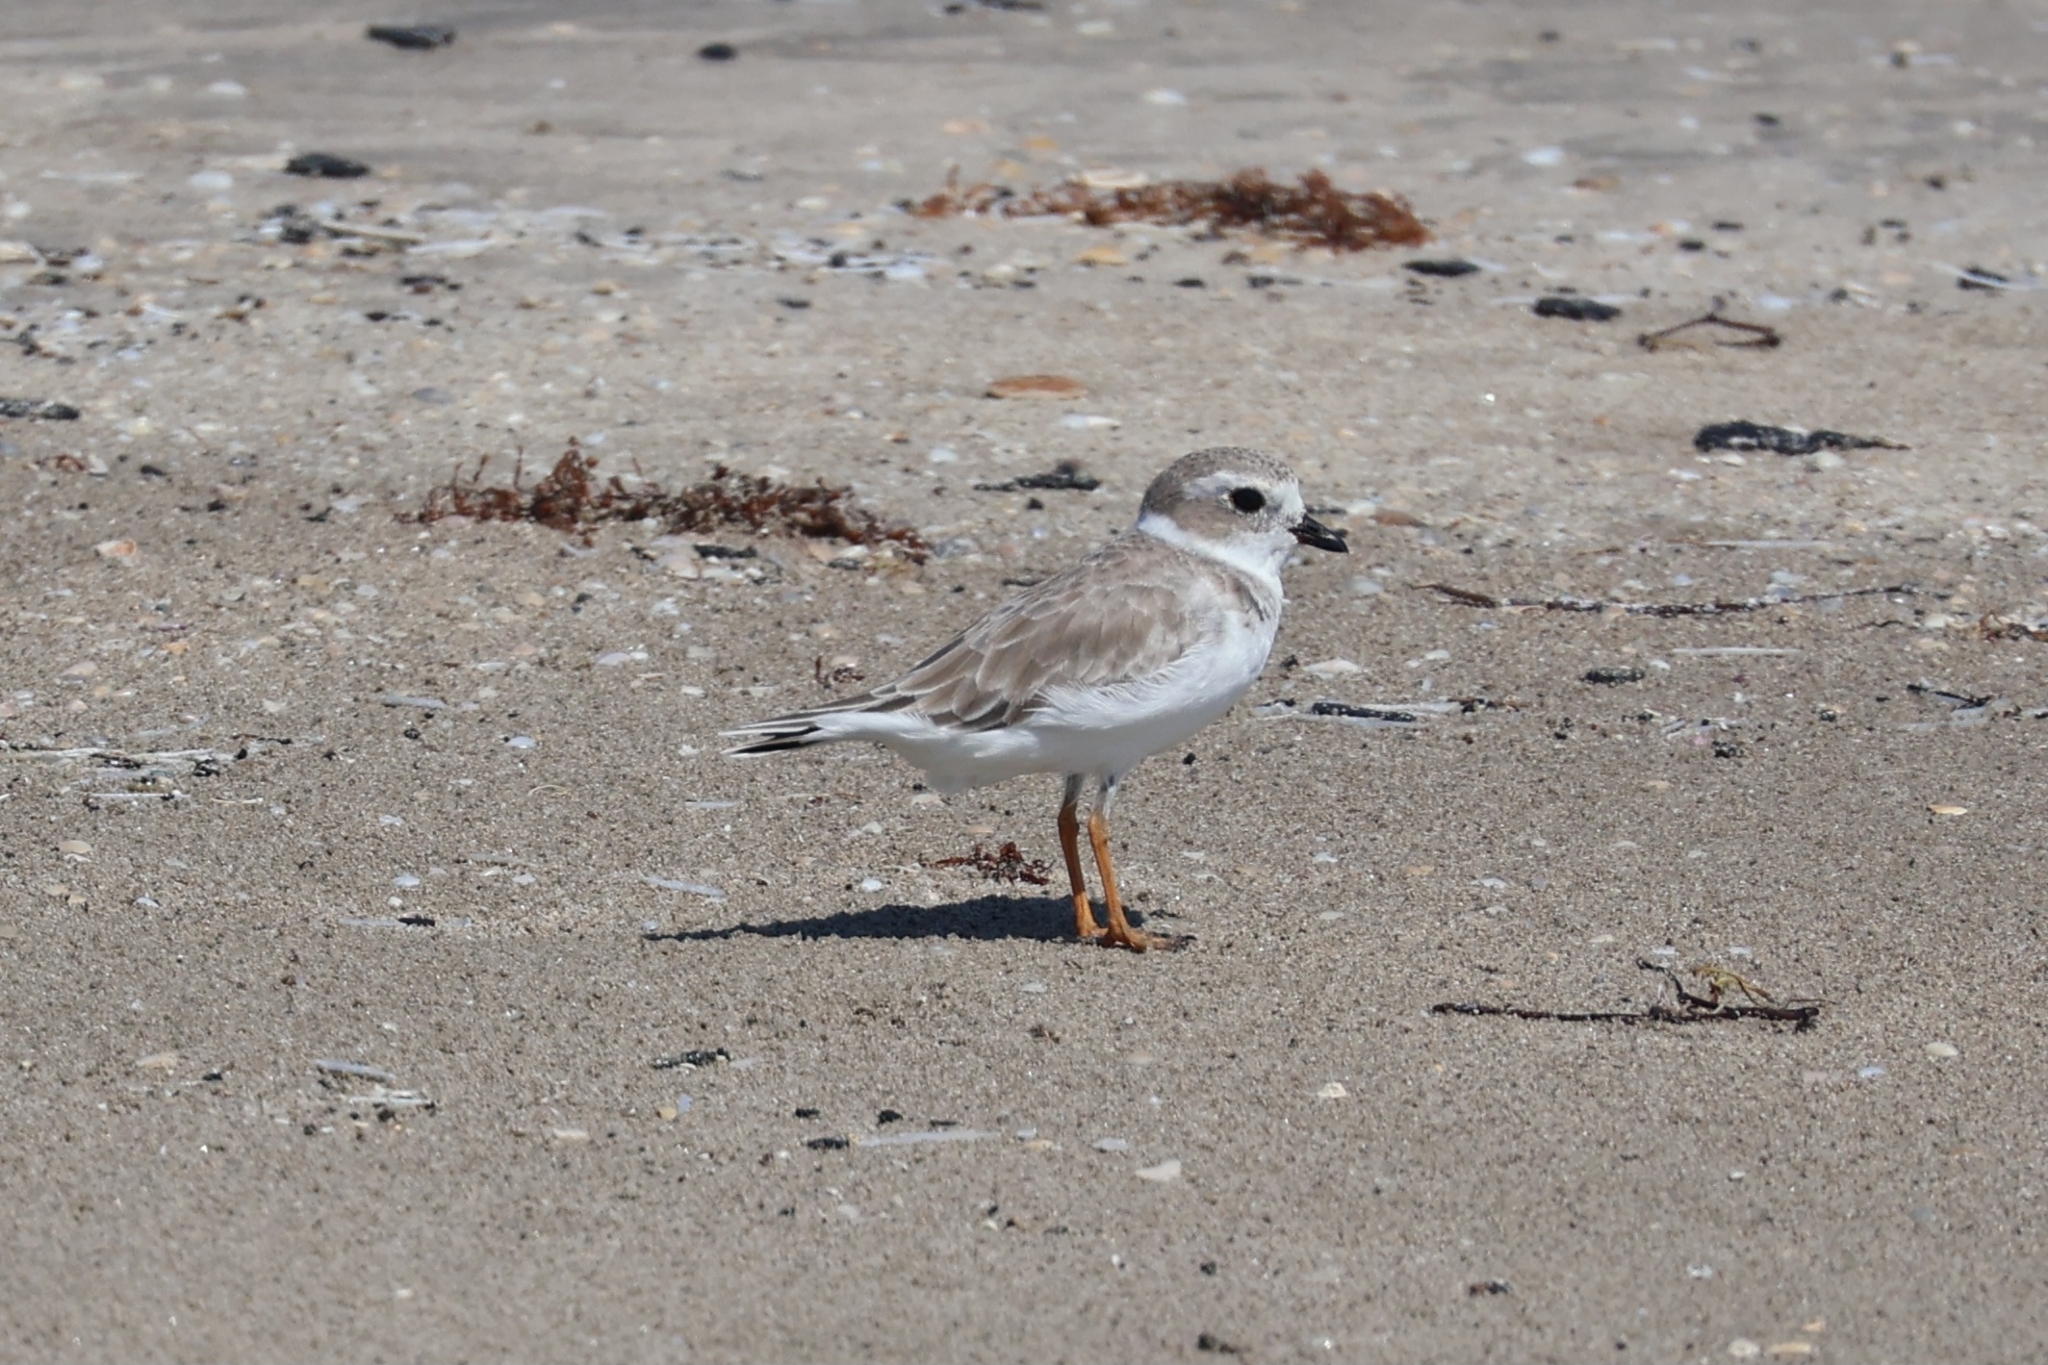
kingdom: Animalia
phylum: Chordata
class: Aves
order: Charadriiformes
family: Charadriidae
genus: Charadrius
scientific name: Charadrius melodus
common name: Piping plover
